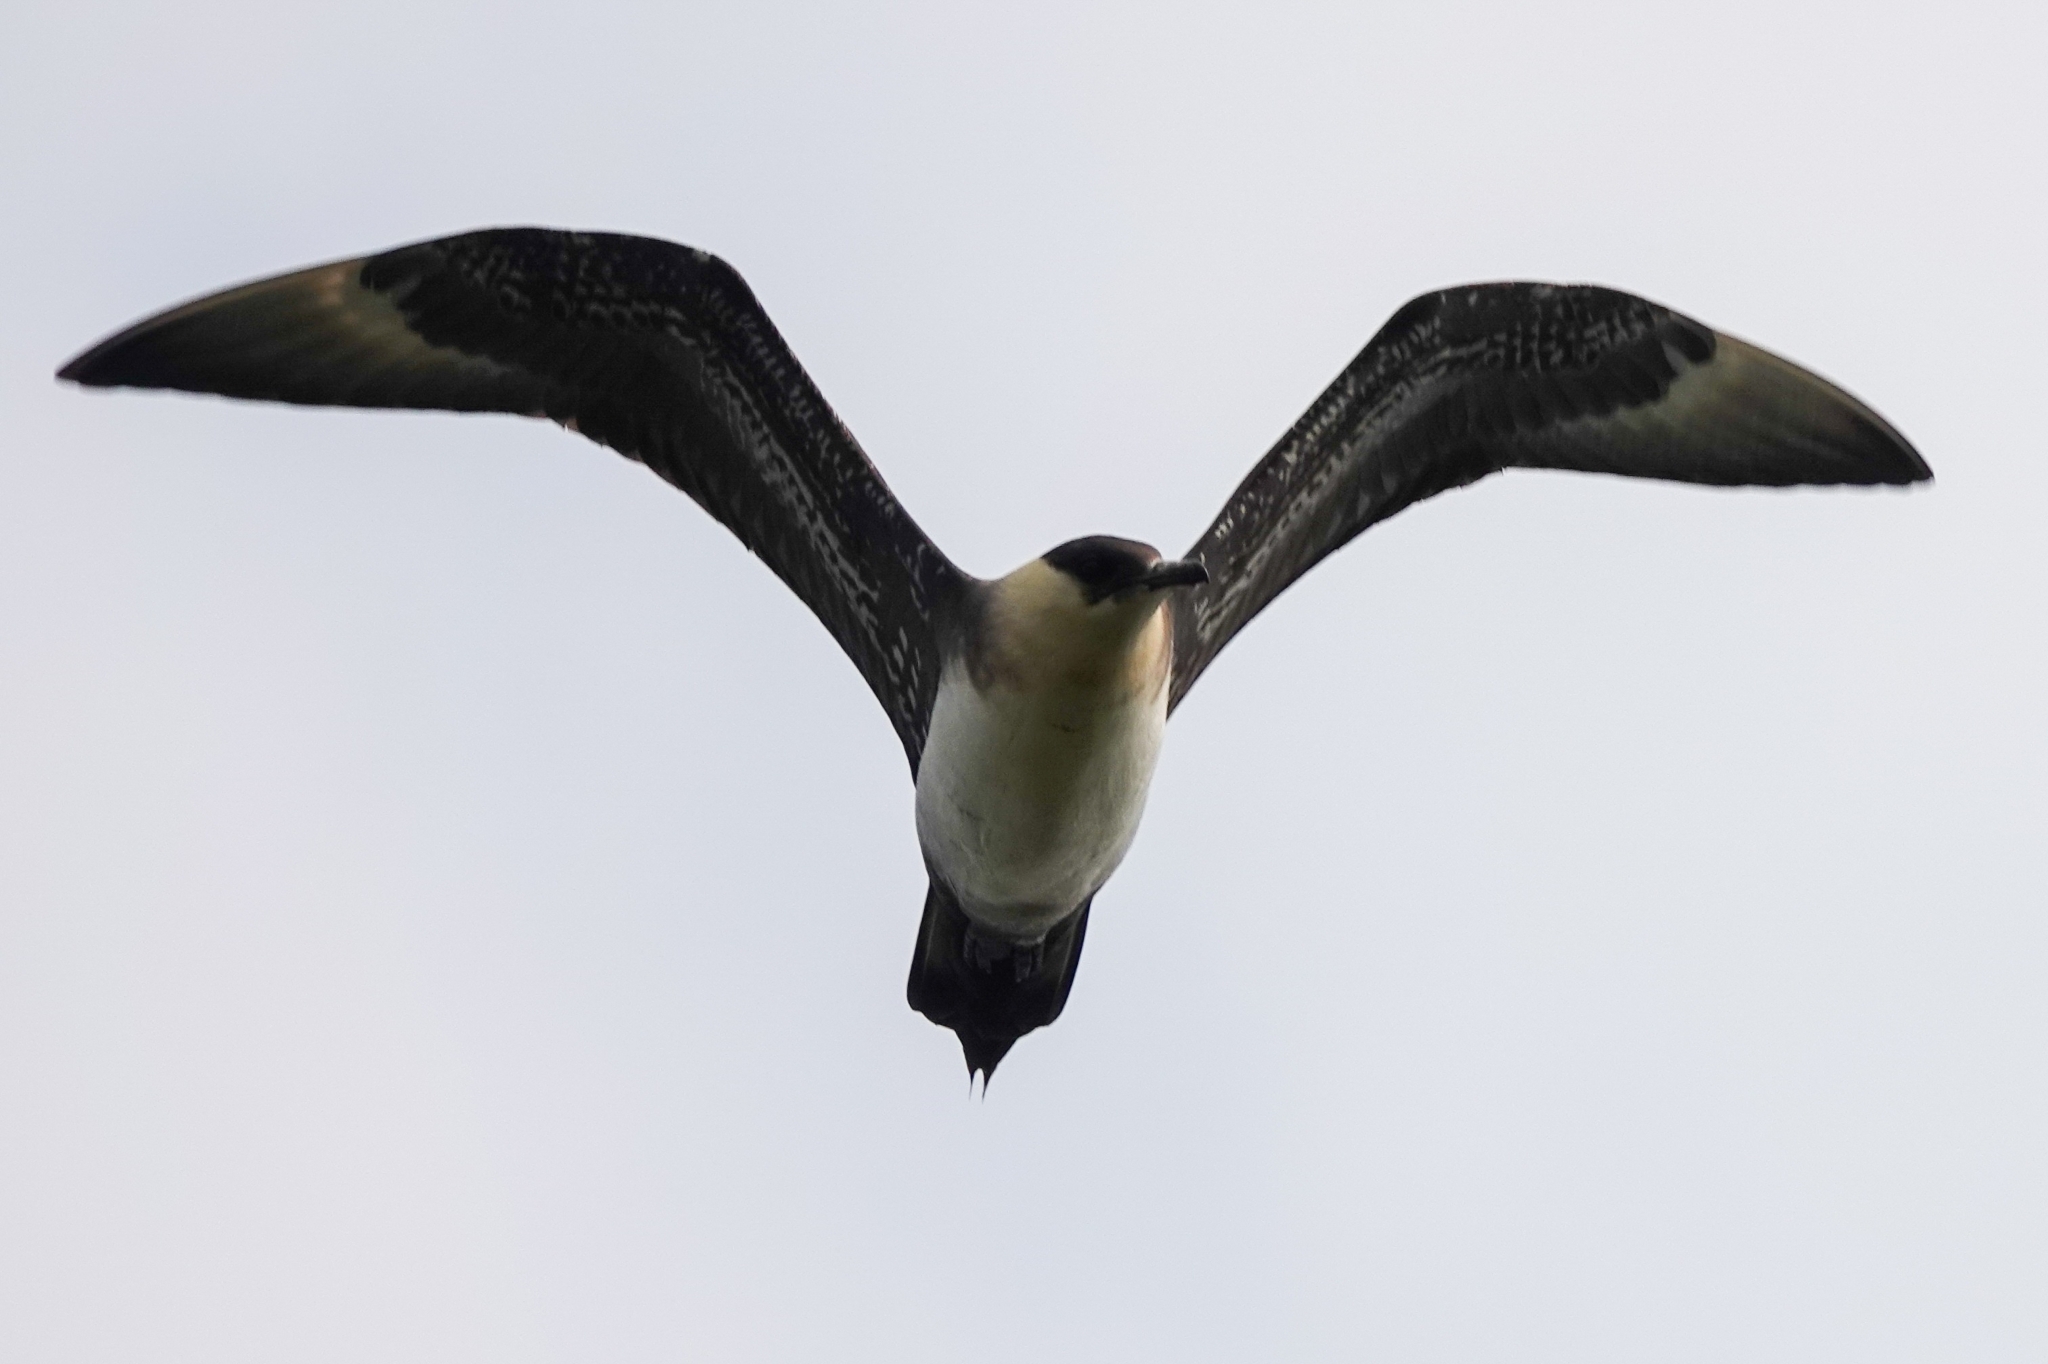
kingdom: Animalia
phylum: Chordata
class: Aves
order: Charadriiformes
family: Stercorariidae
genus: Stercorarius
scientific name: Stercorarius parasiticus
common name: Parasitic jaeger
